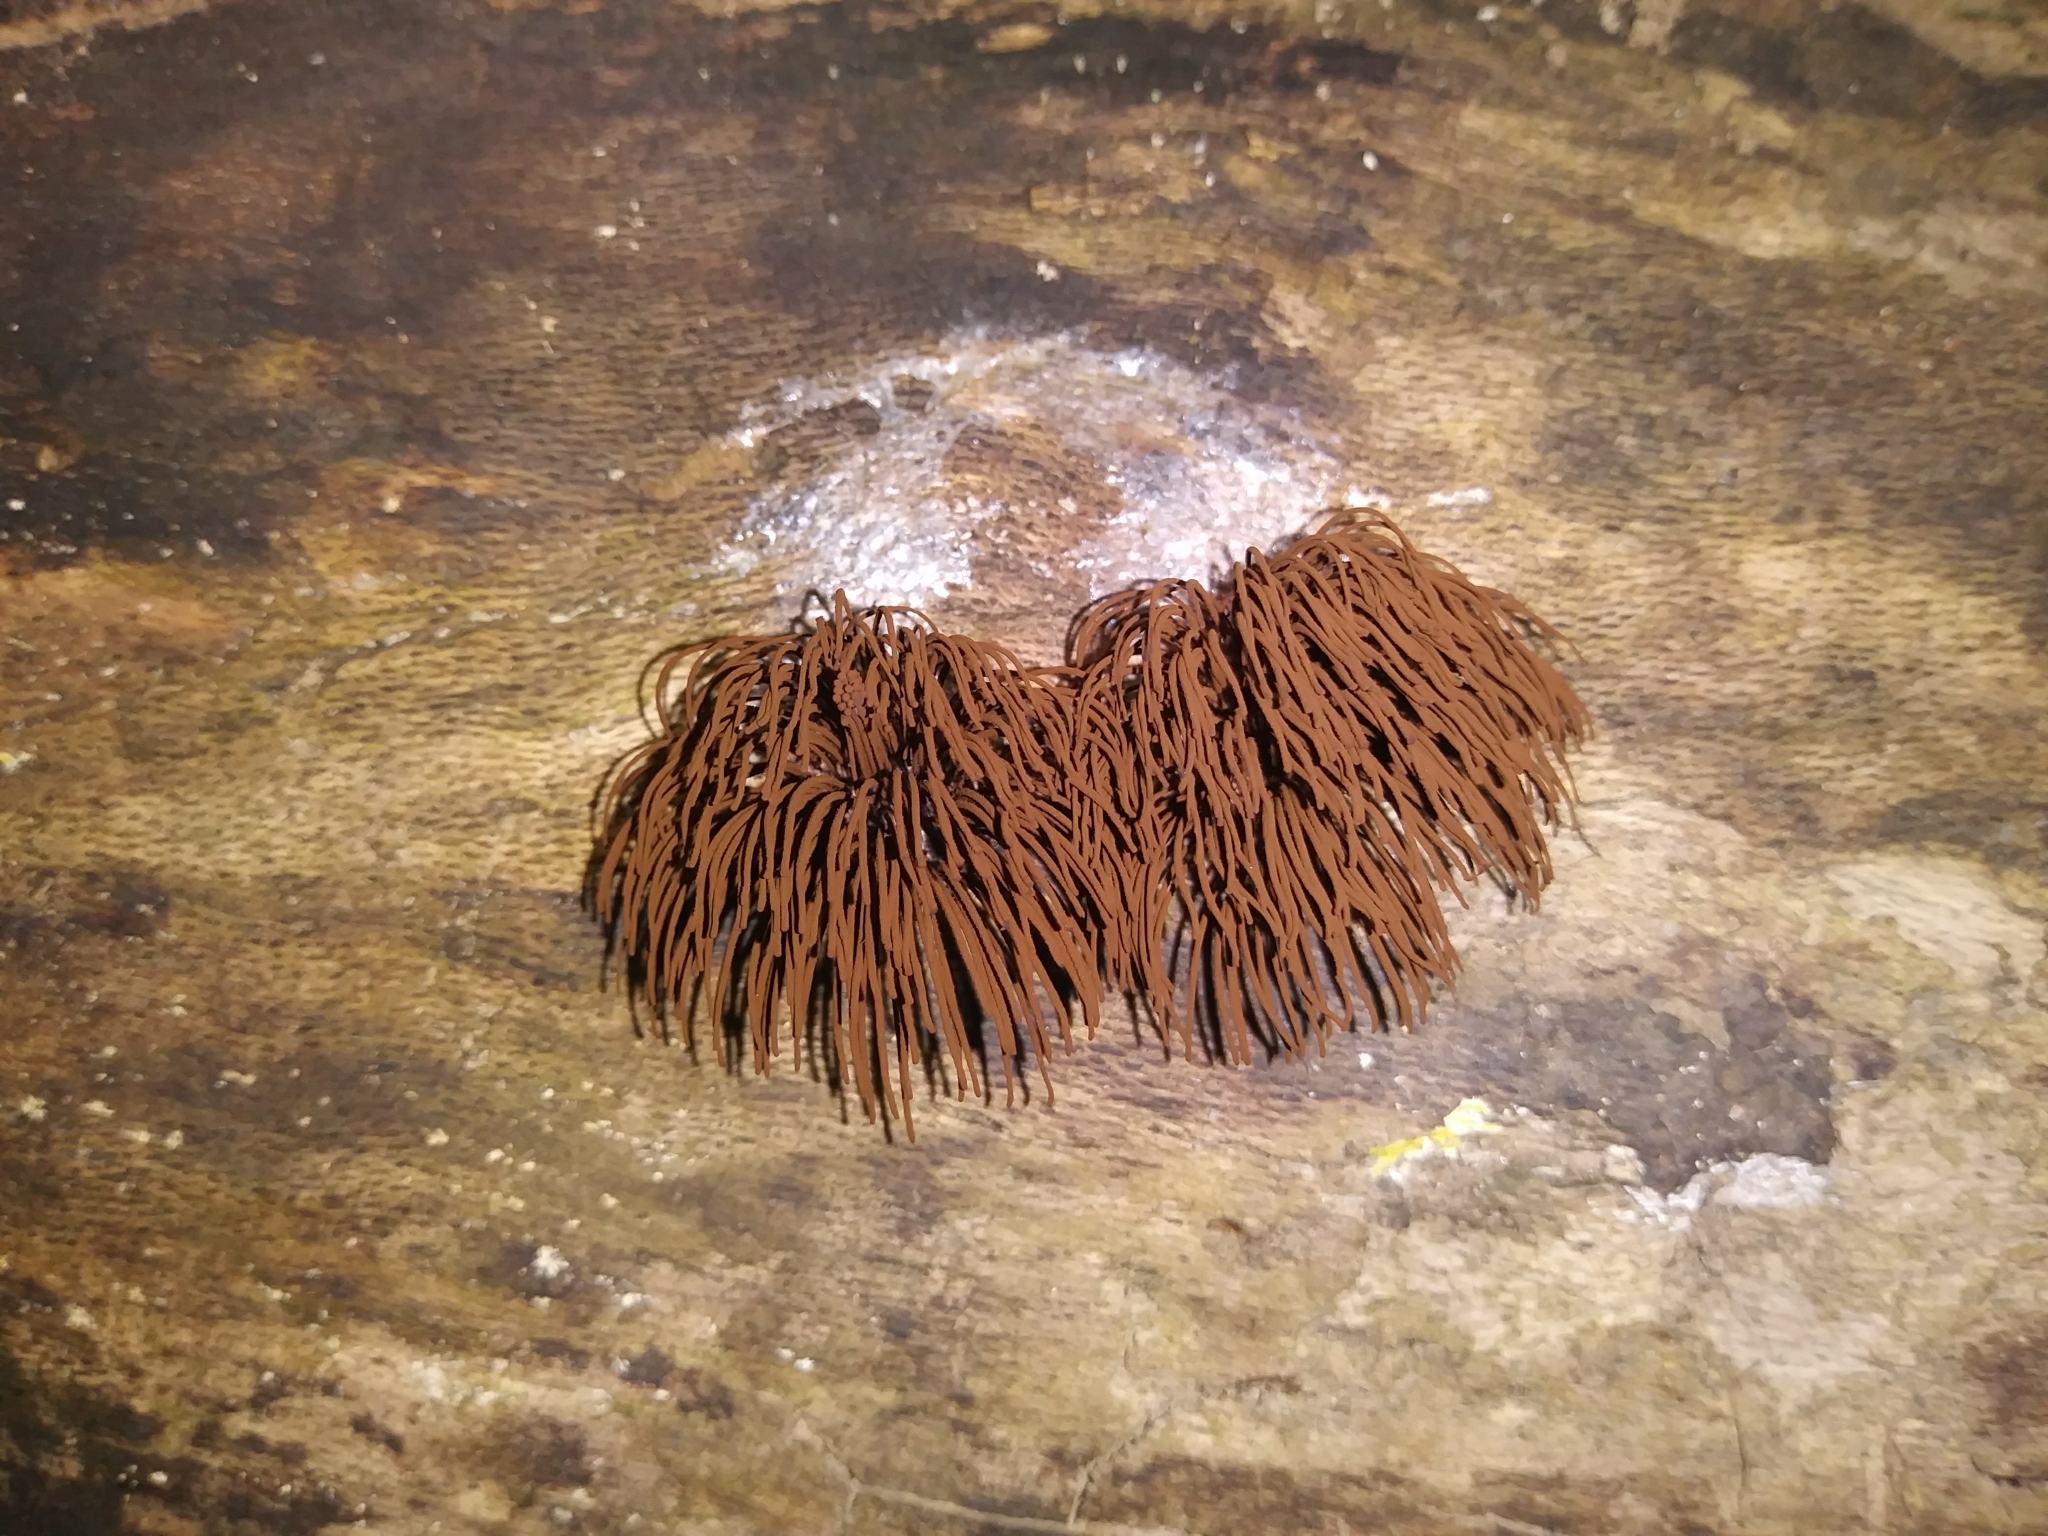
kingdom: Protozoa
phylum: Mycetozoa
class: Myxomycetes
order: Stemonitidales
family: Stemonitidaceae
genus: Stemonitis
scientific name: Stemonitis splendens
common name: Chocolate tube slime
